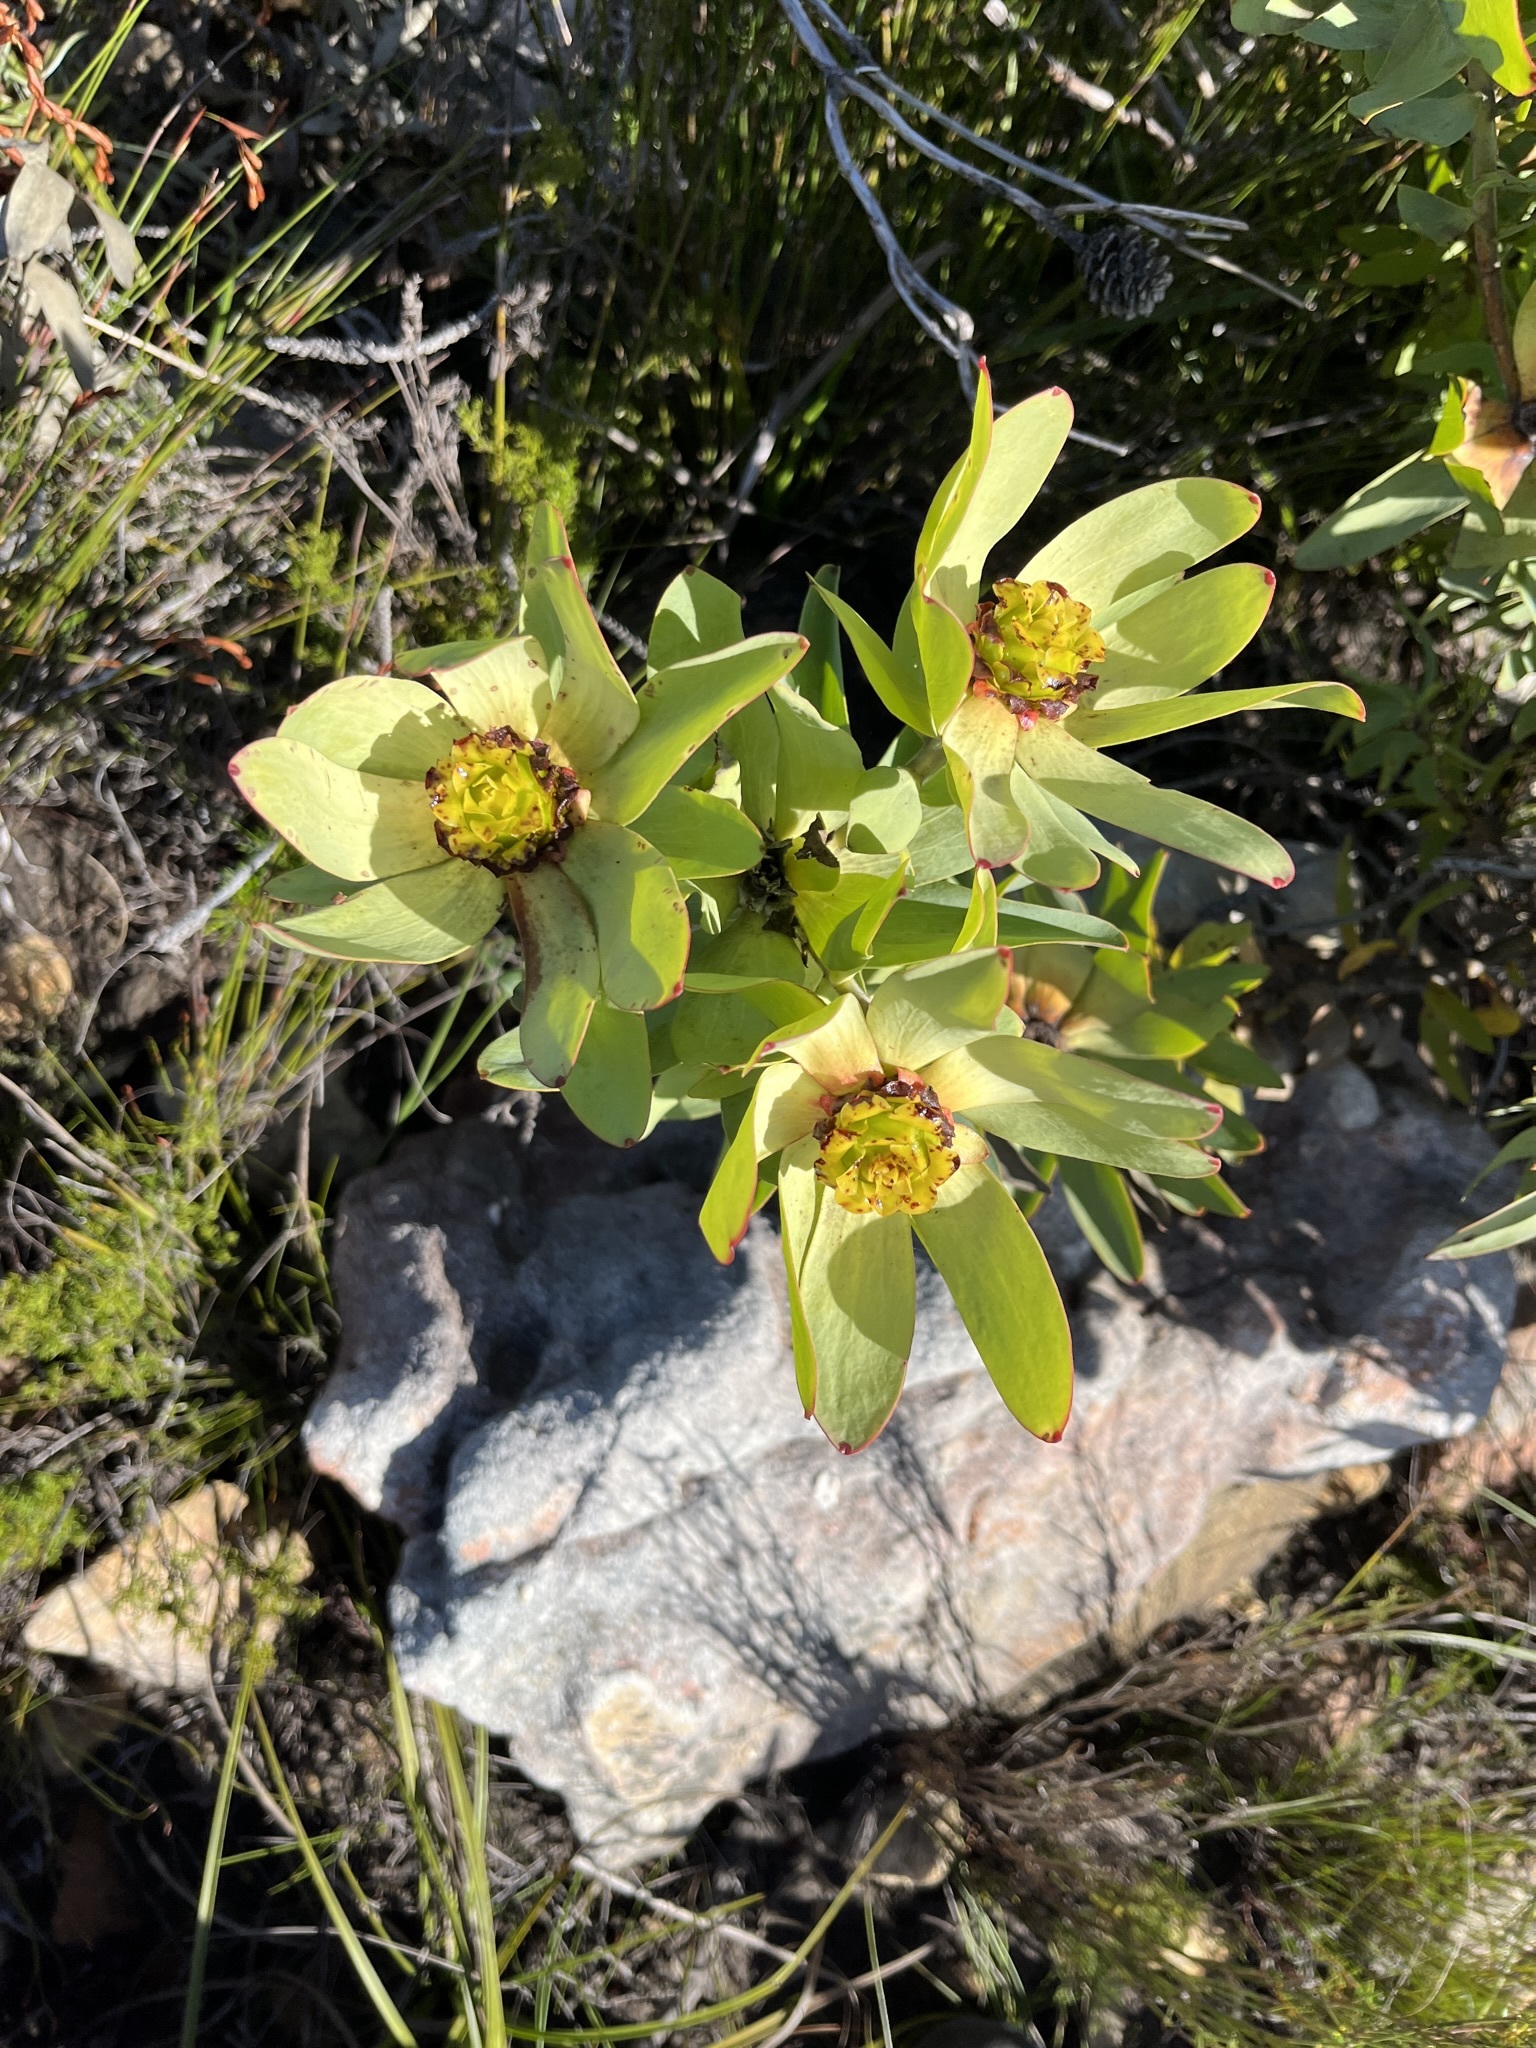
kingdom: Plantae
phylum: Tracheophyta
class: Magnoliopsida
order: Proteales
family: Proteaceae
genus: Leucadendron
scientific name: Leucadendron tinctum
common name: Spicy conebush
